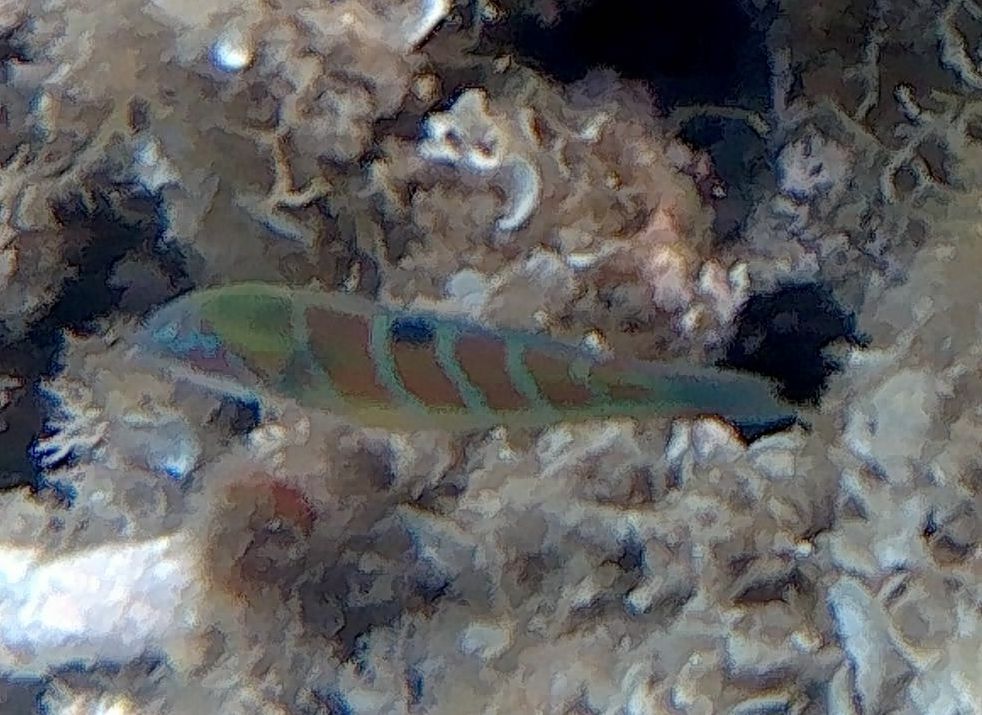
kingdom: Animalia
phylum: Chordata
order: Perciformes
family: Labridae
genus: Thalassoma
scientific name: Thalassoma pavo
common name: Ornate wrasse
